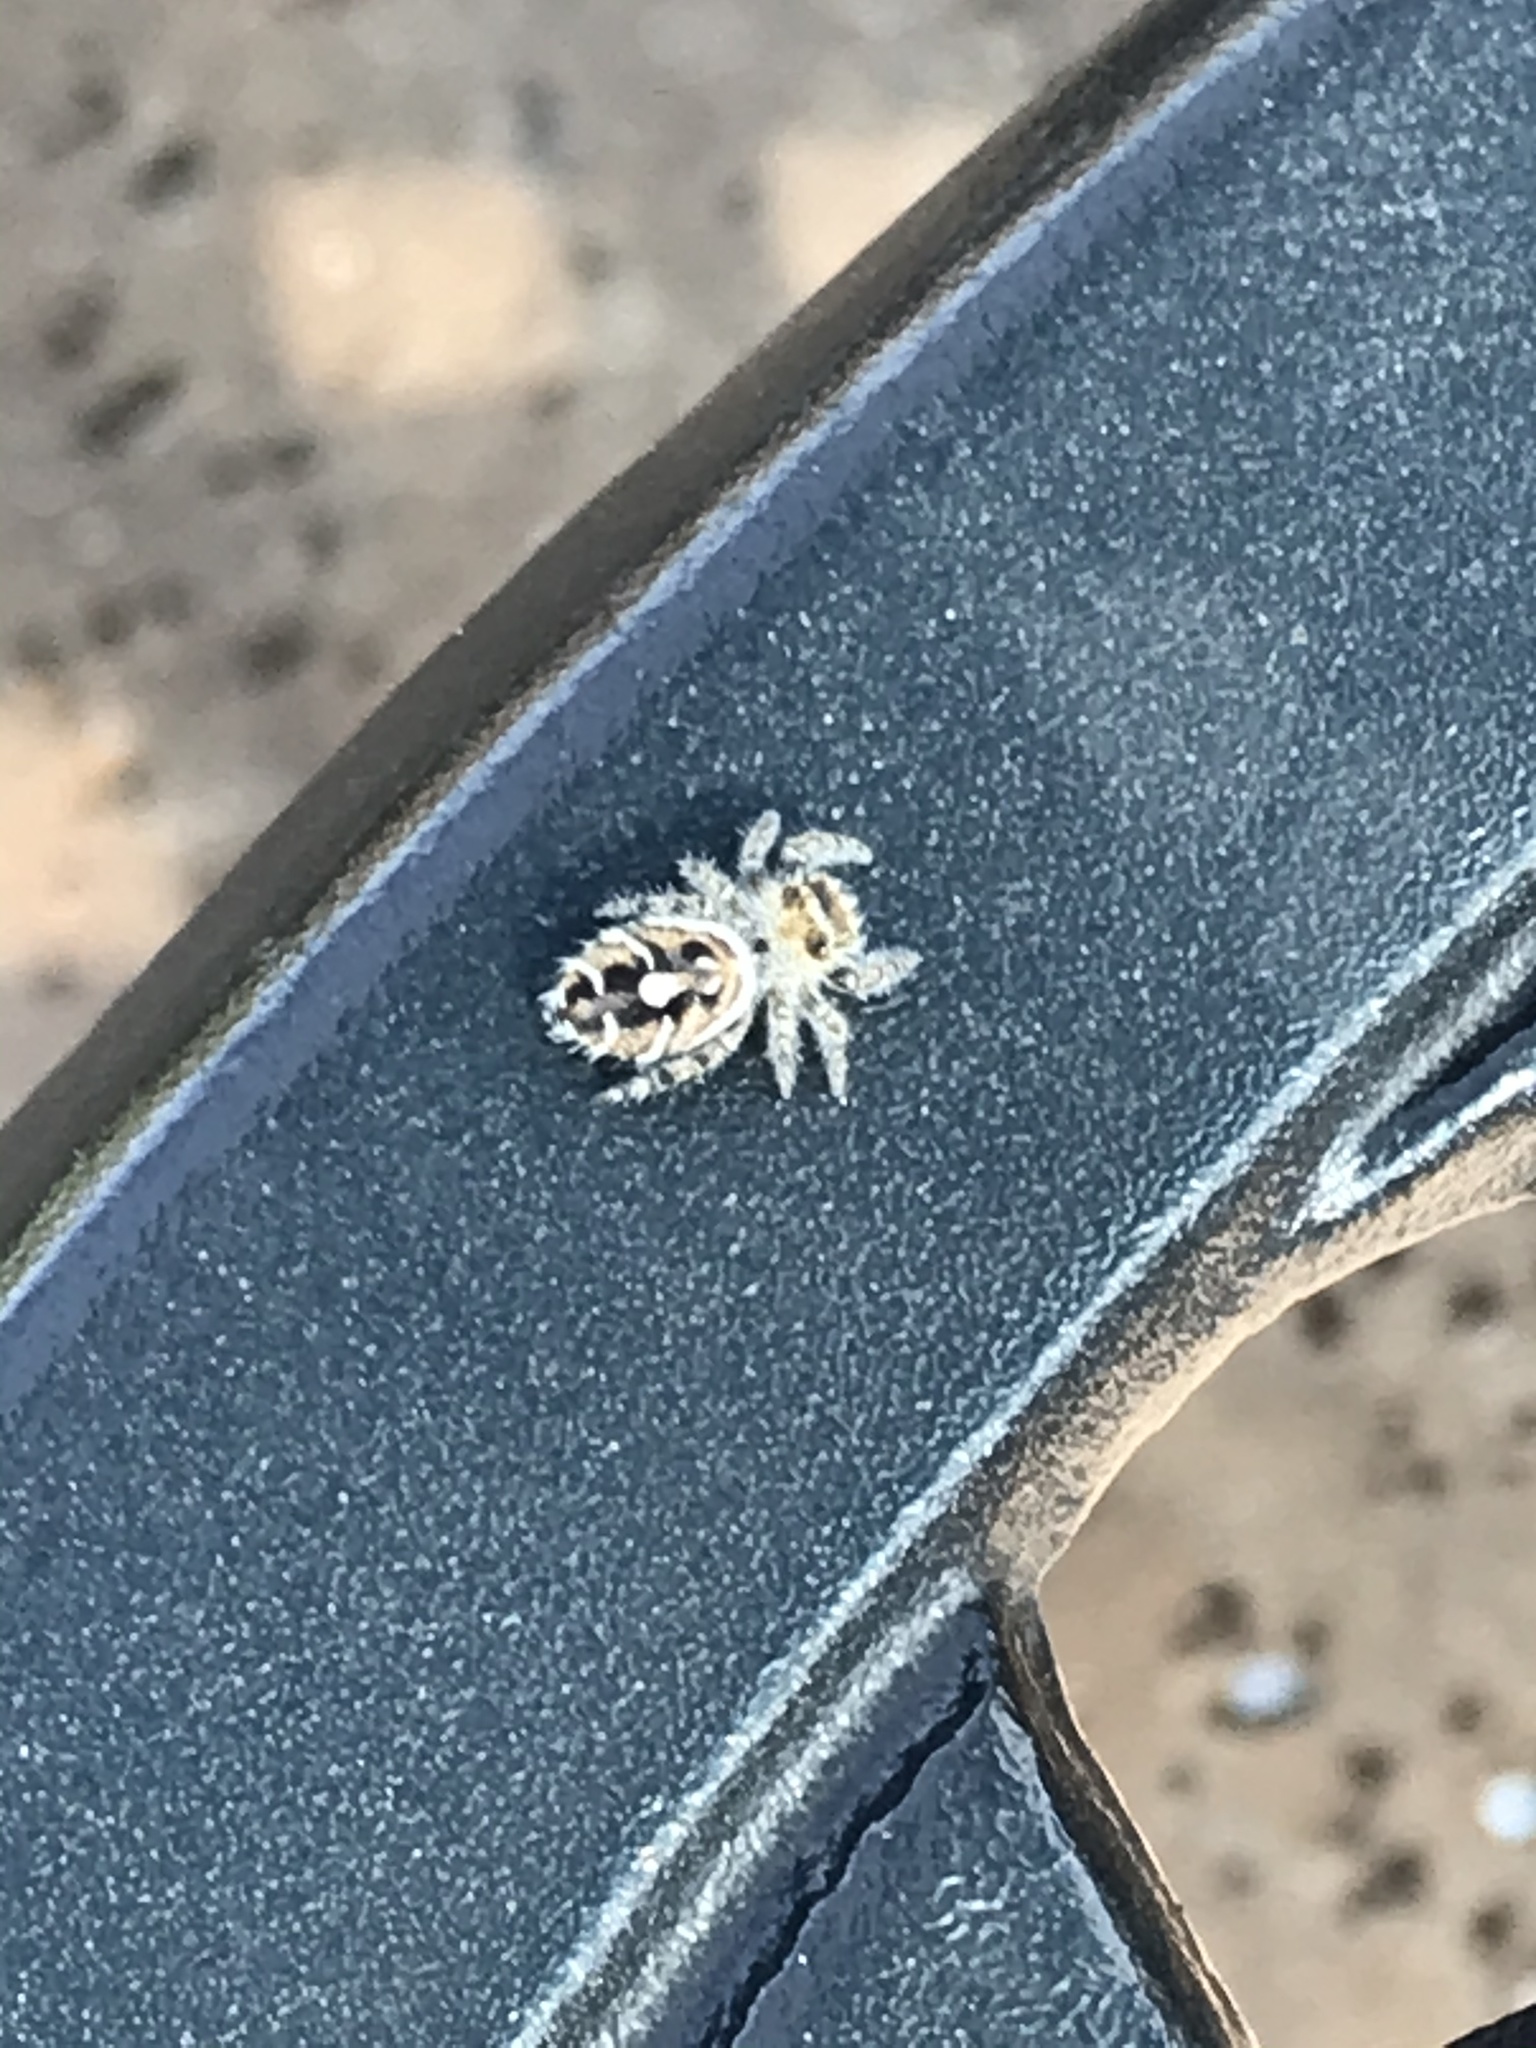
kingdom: Animalia
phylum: Arthropoda
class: Arachnida
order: Araneae
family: Salticidae
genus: Phidippus
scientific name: Phidippus carolinensis
